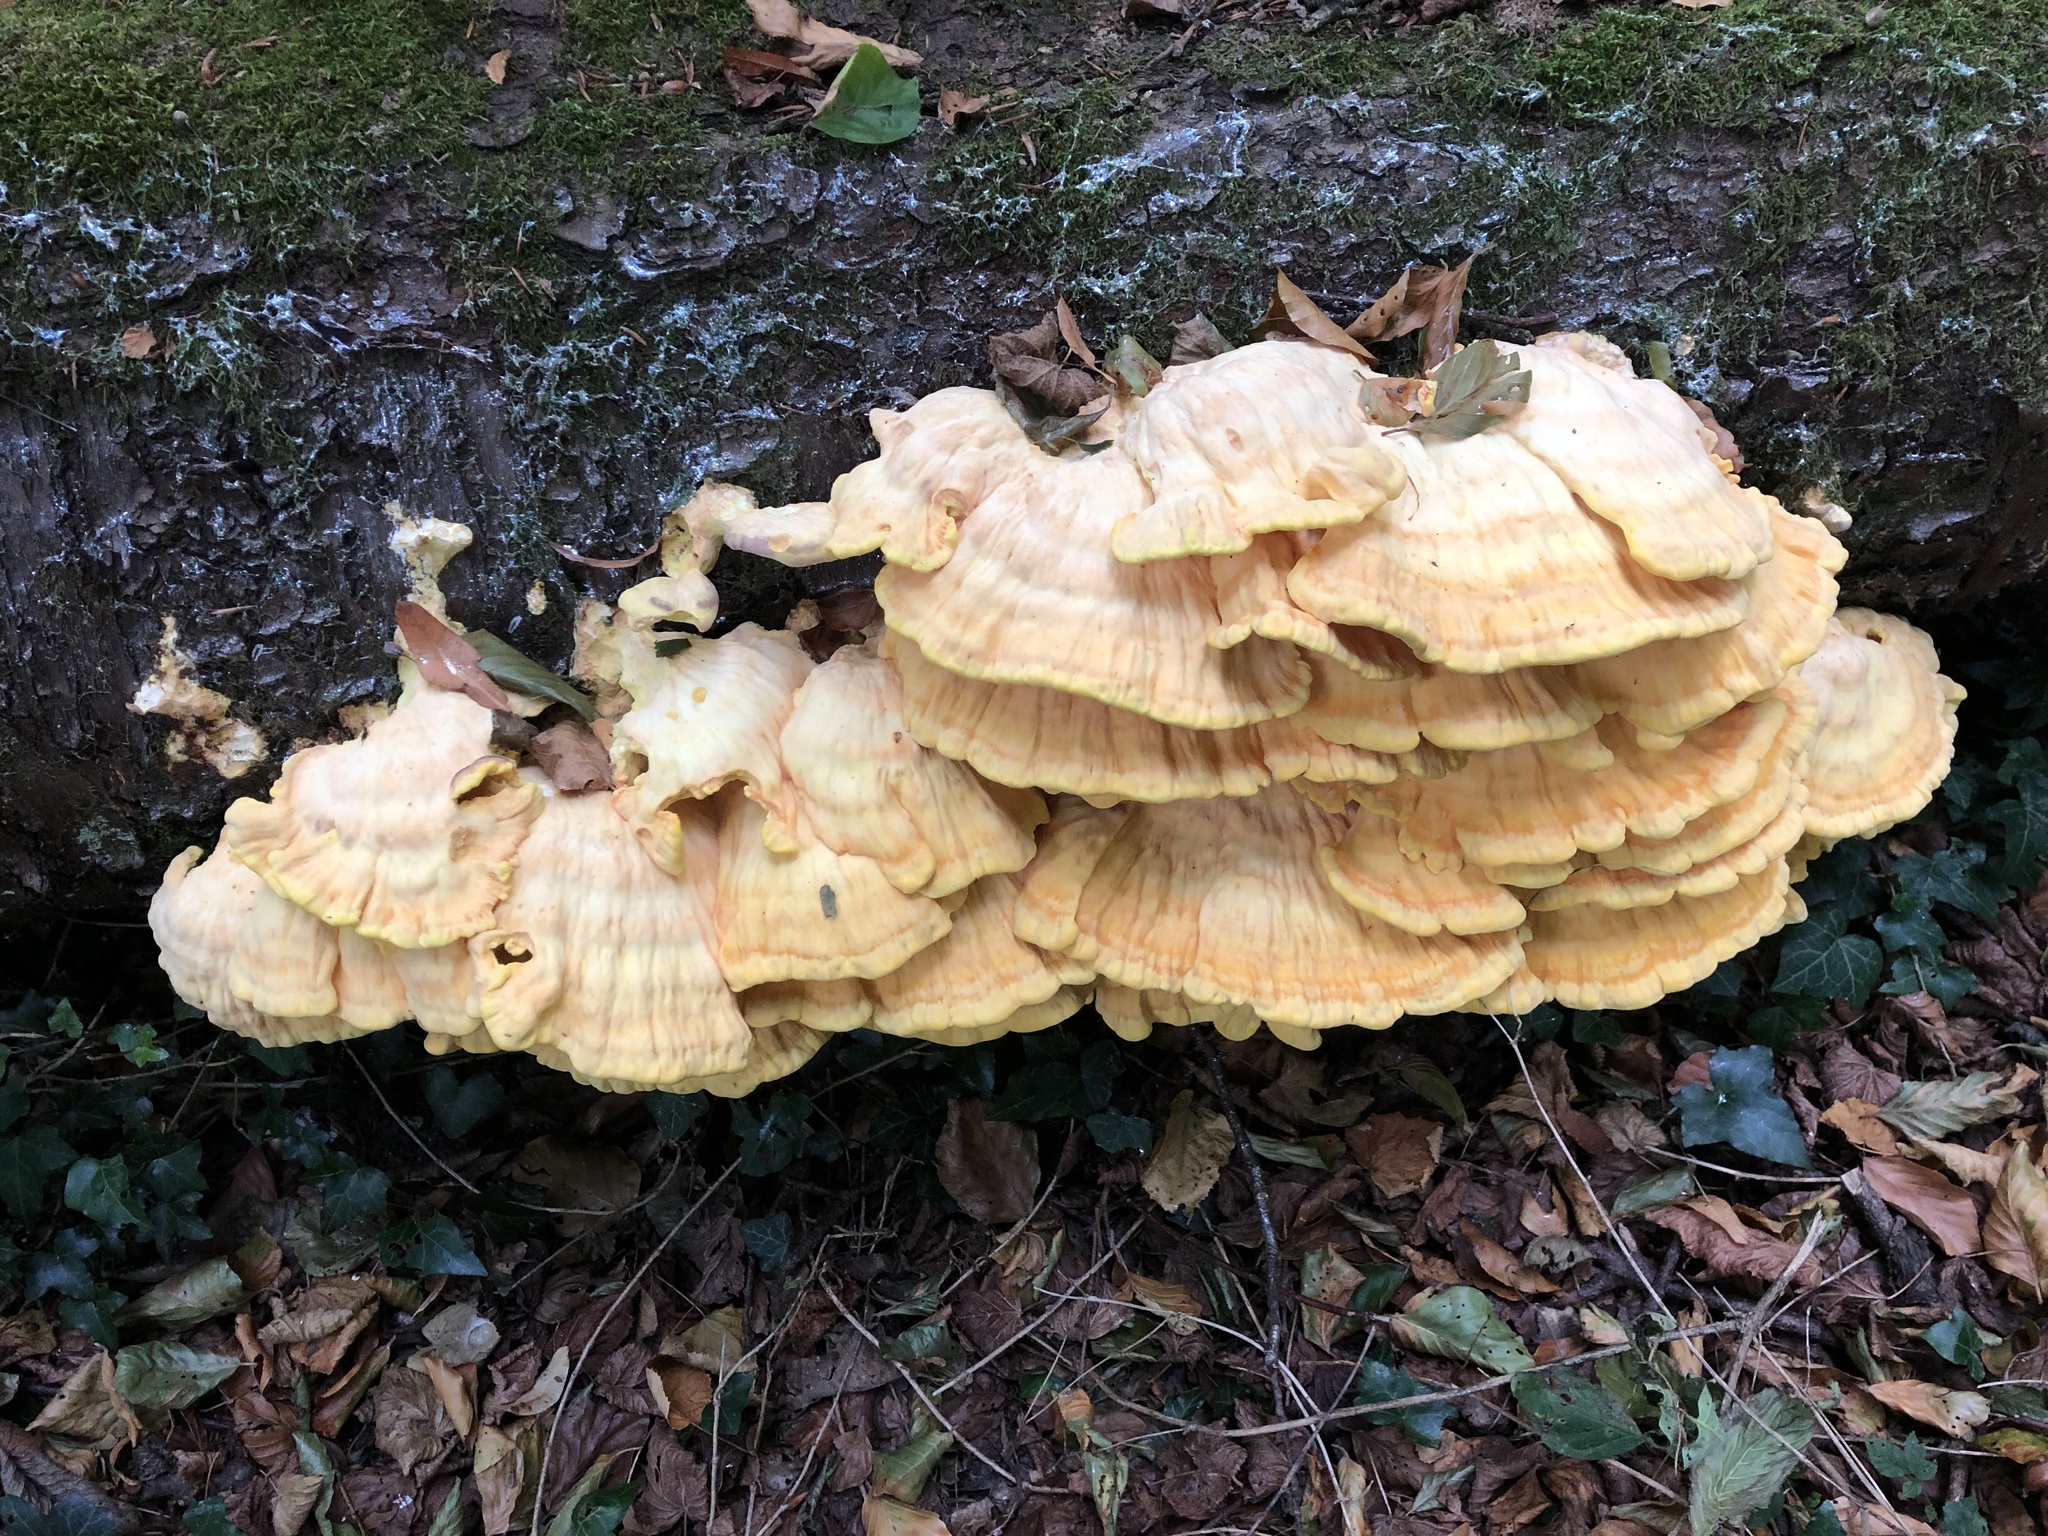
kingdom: Fungi
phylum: Basidiomycota
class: Agaricomycetes
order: Polyporales
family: Laetiporaceae
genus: Laetiporus
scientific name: Laetiporus sulphureus
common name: Chicken of the woods
